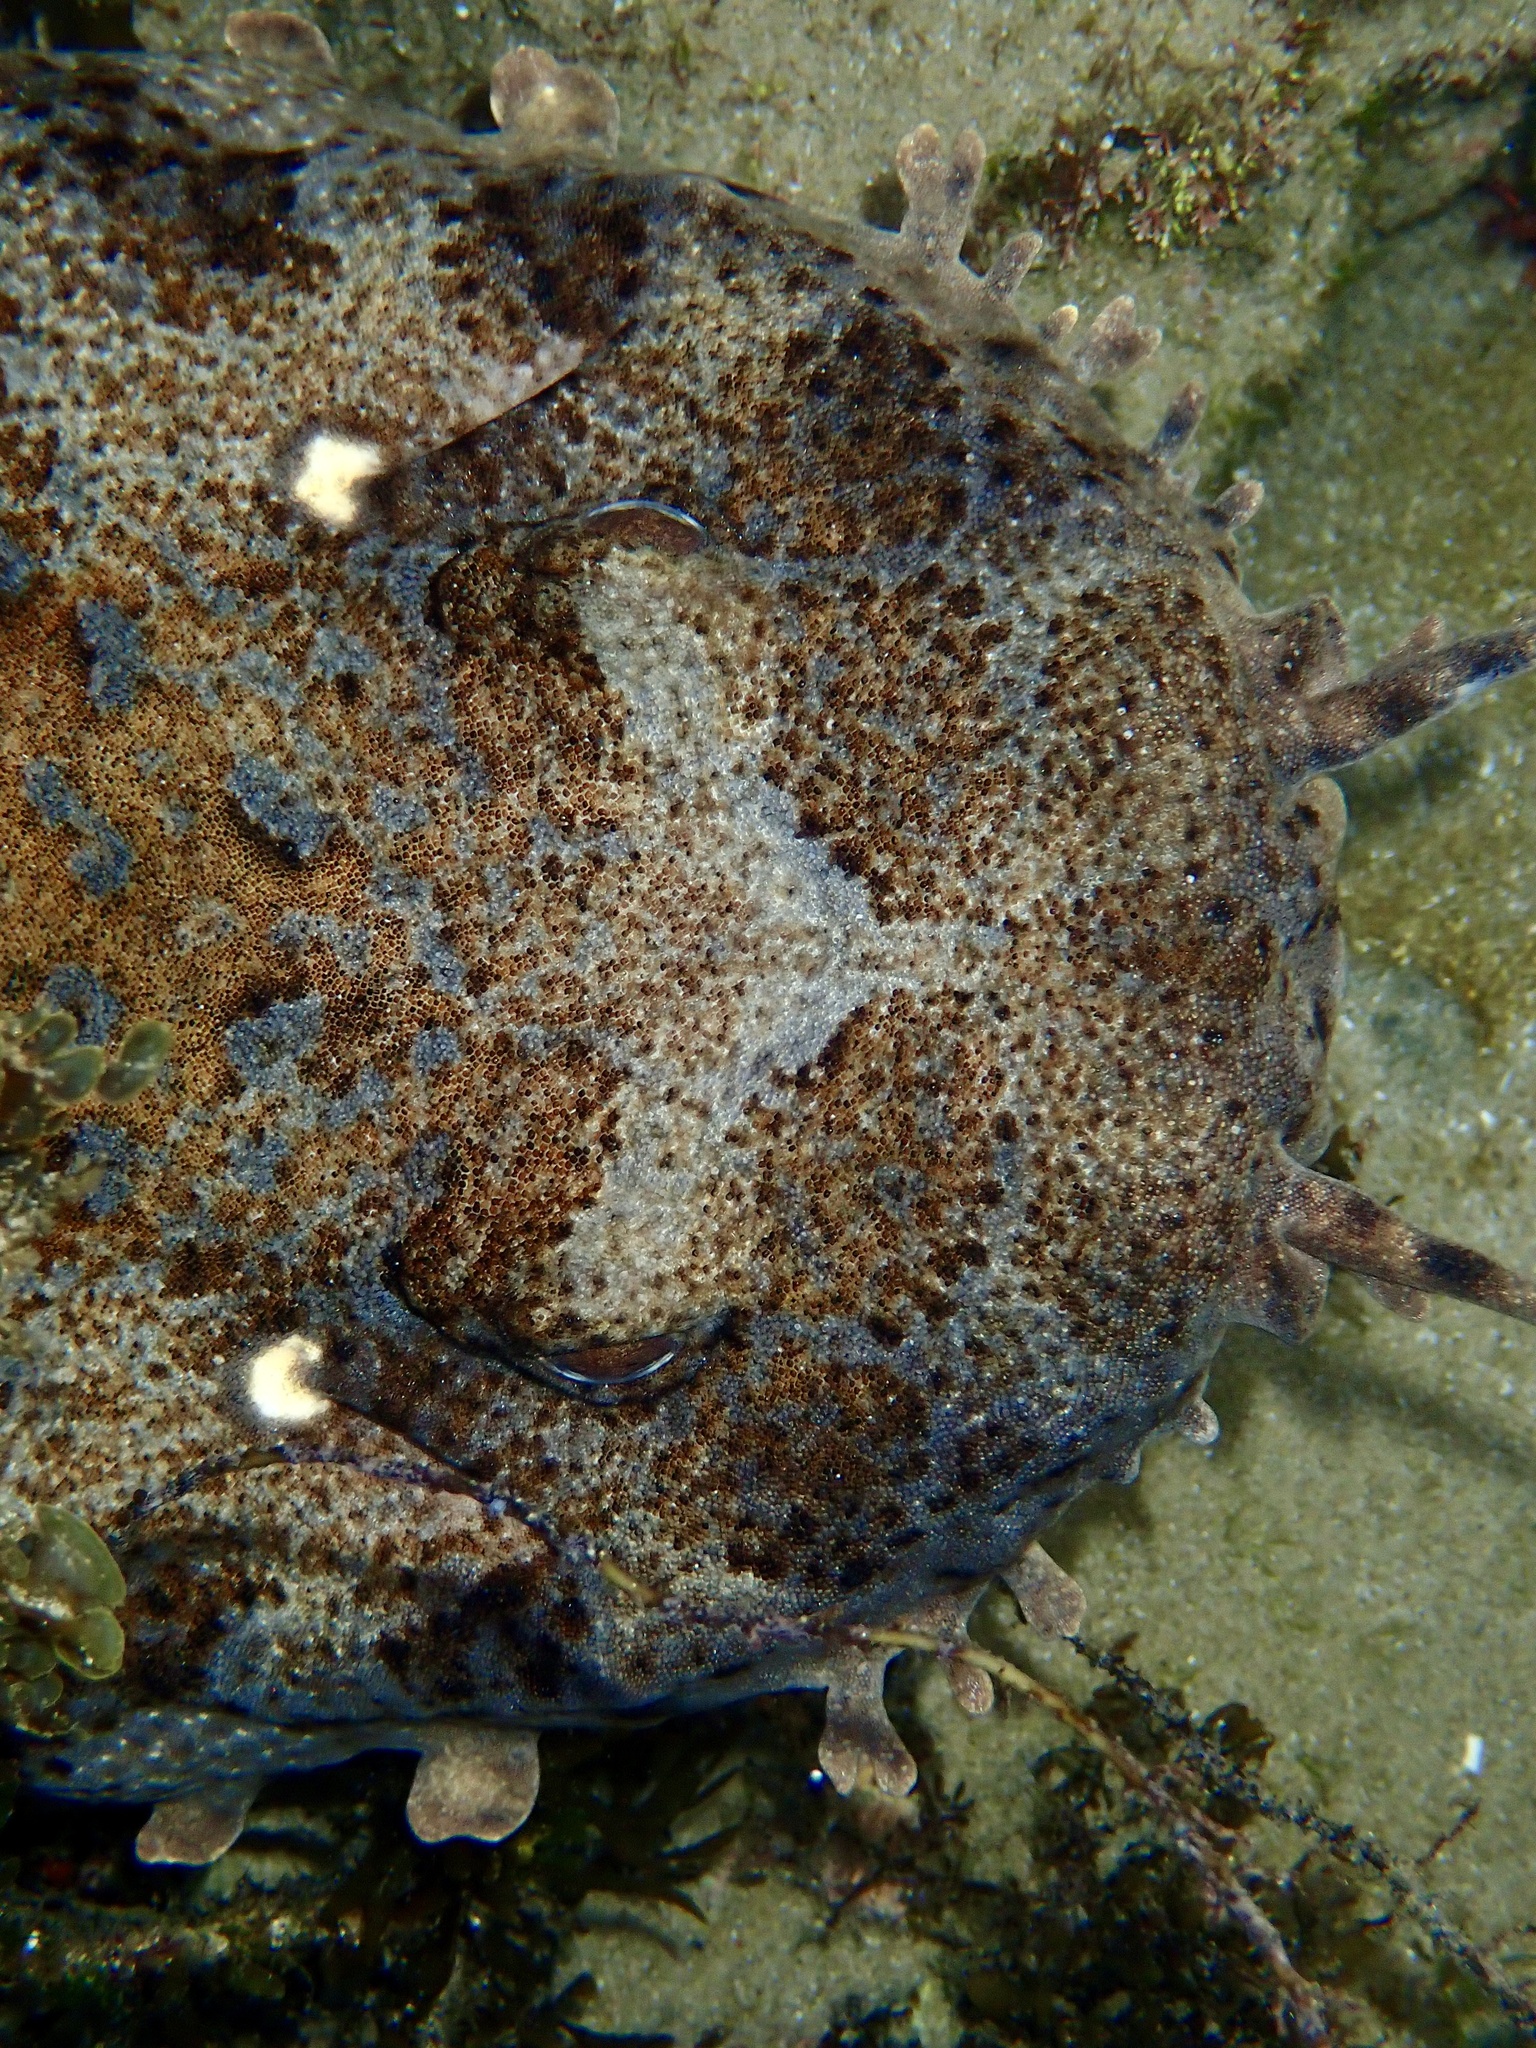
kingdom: Animalia
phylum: Chordata
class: Elasmobranchii
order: Orectolobiformes
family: Orectolobidae
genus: Orectolobus
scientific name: Orectolobus ornatus
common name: Ornate wobbegong
